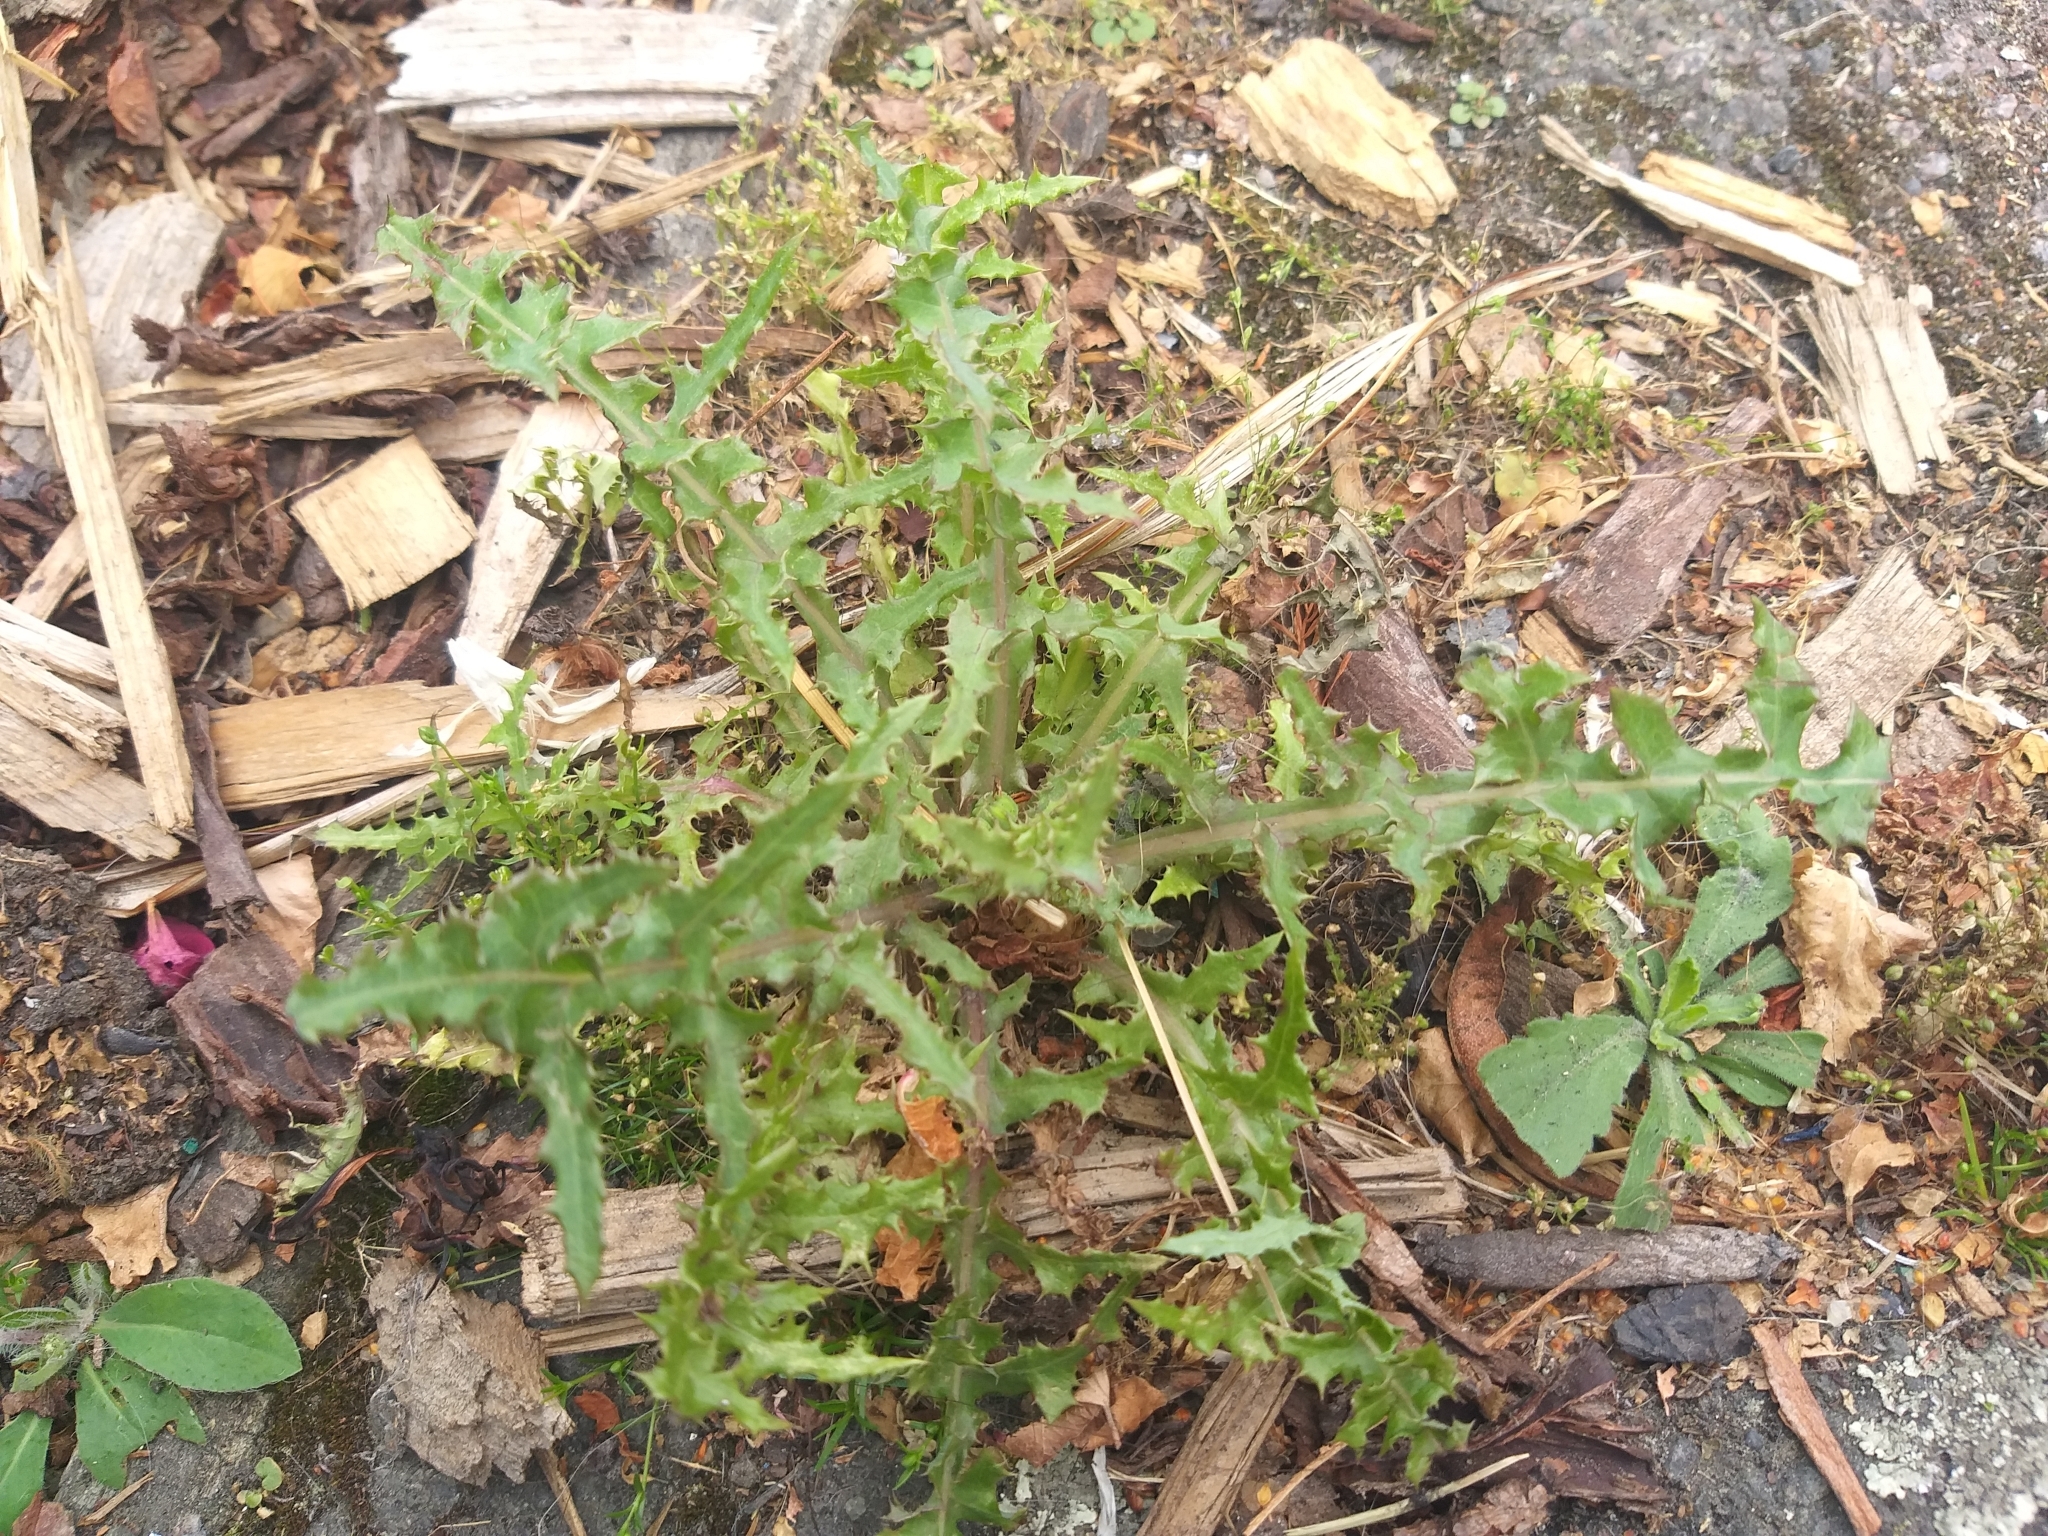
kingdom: Plantae
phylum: Tracheophyta
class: Magnoliopsida
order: Asterales
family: Asteraceae
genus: Sonchus
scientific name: Sonchus asper
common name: Prickly sow-thistle
